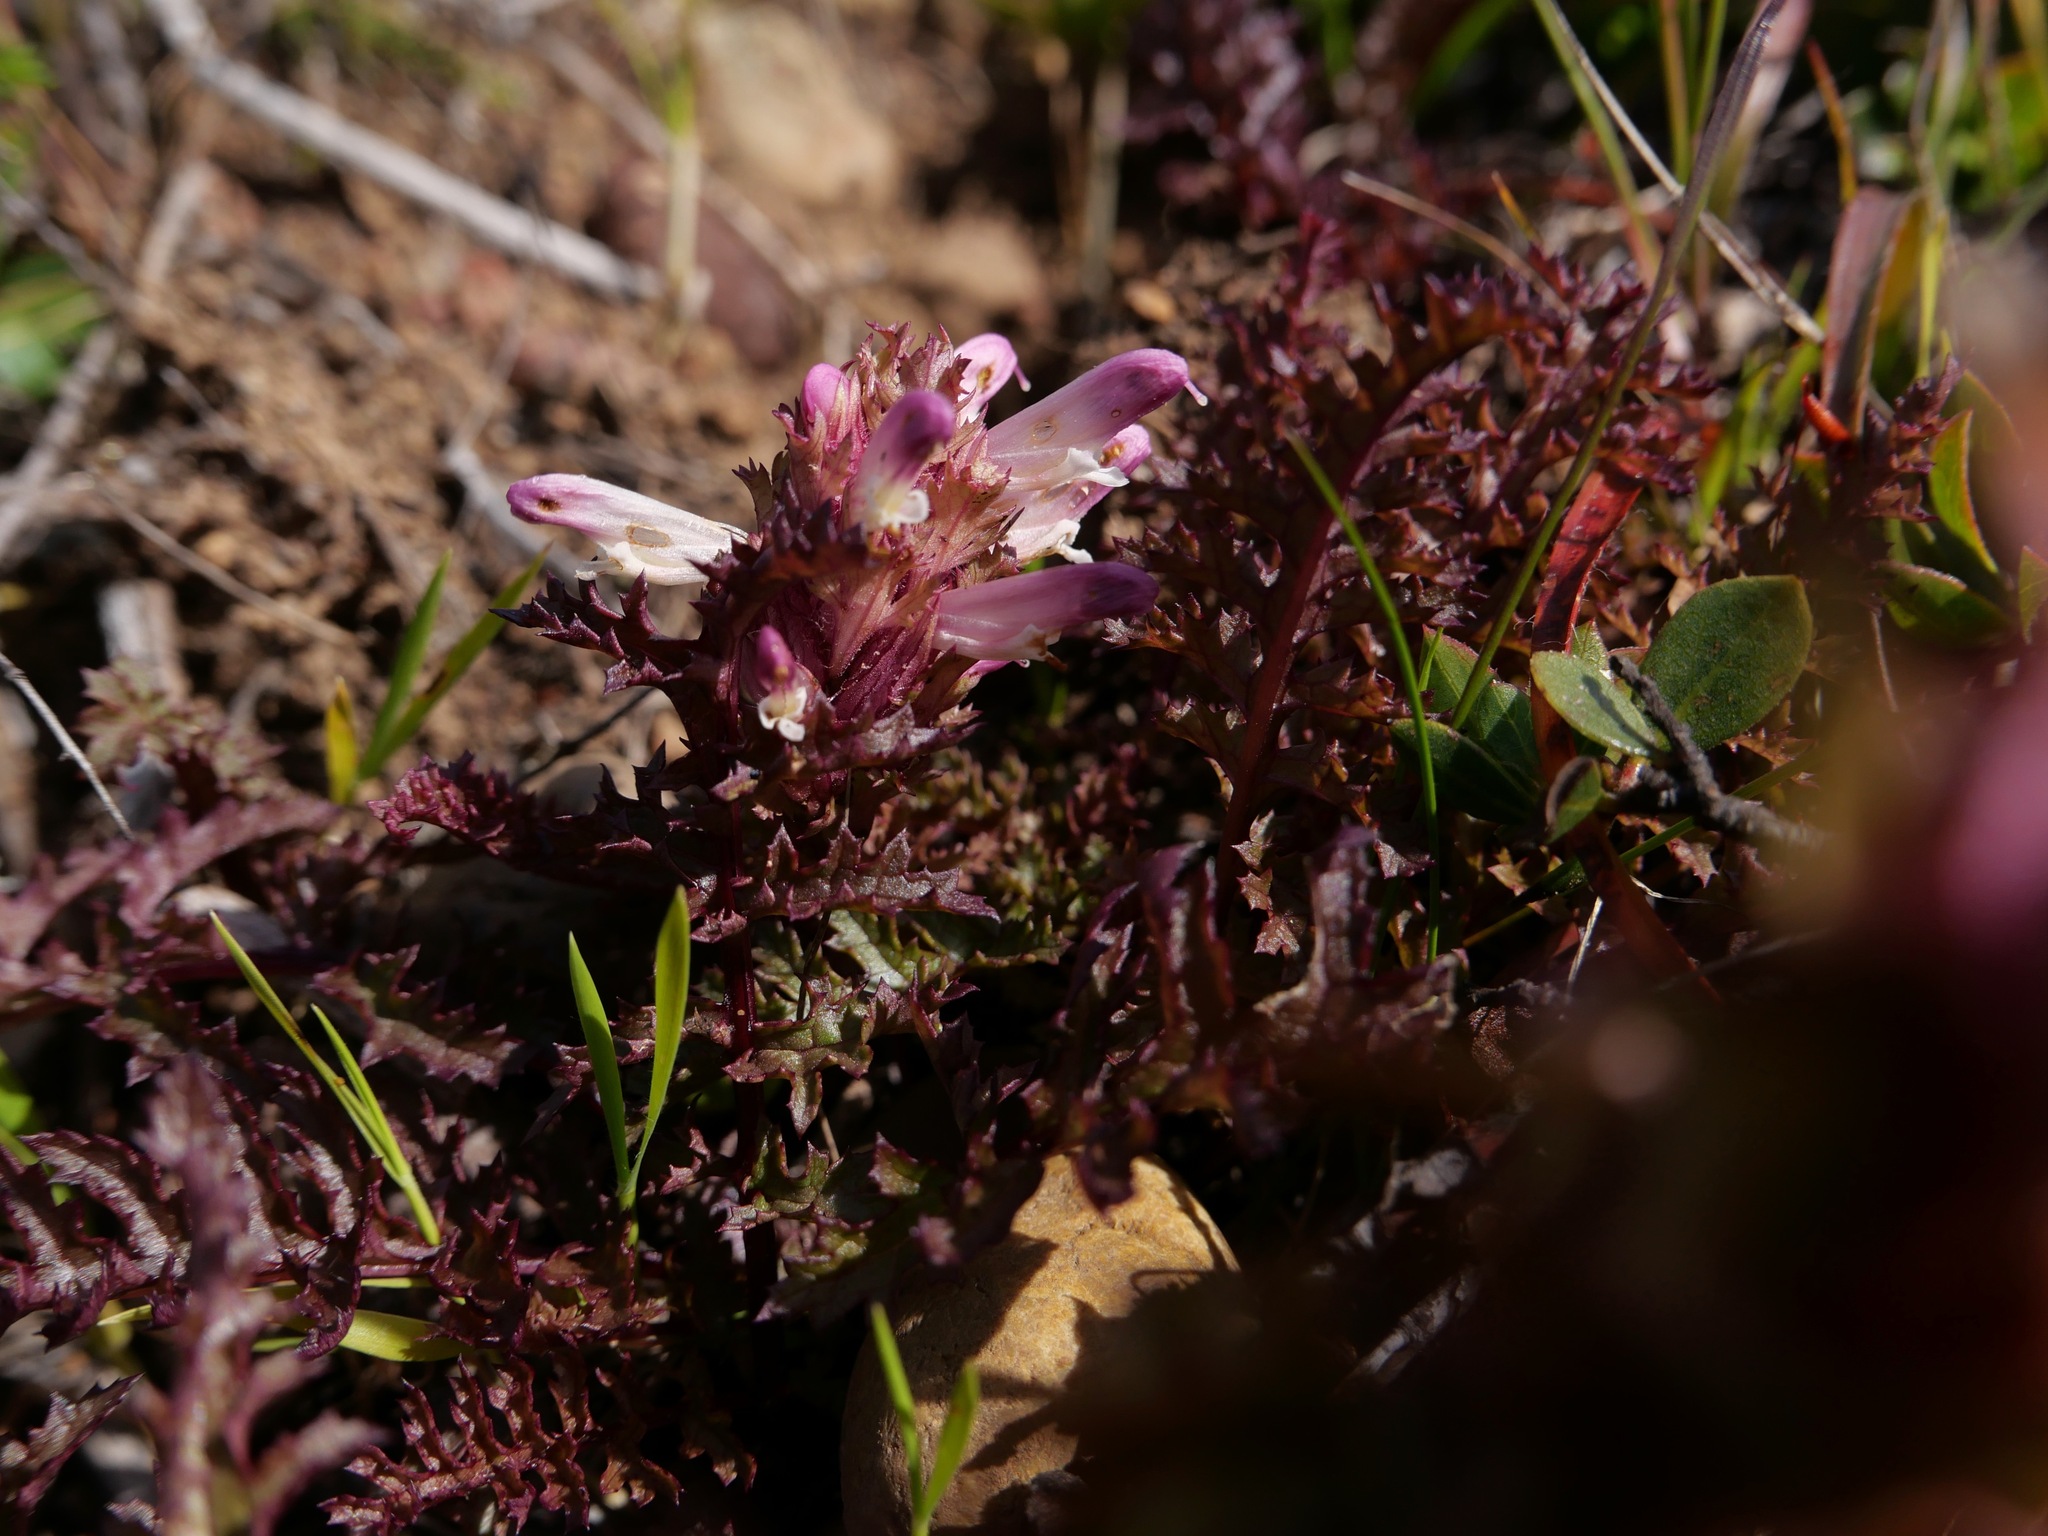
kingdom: Plantae
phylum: Tracheophyta
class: Magnoliopsida
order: Lamiales
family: Orobanchaceae
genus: Pedicularis
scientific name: Pedicularis rigginsiae
